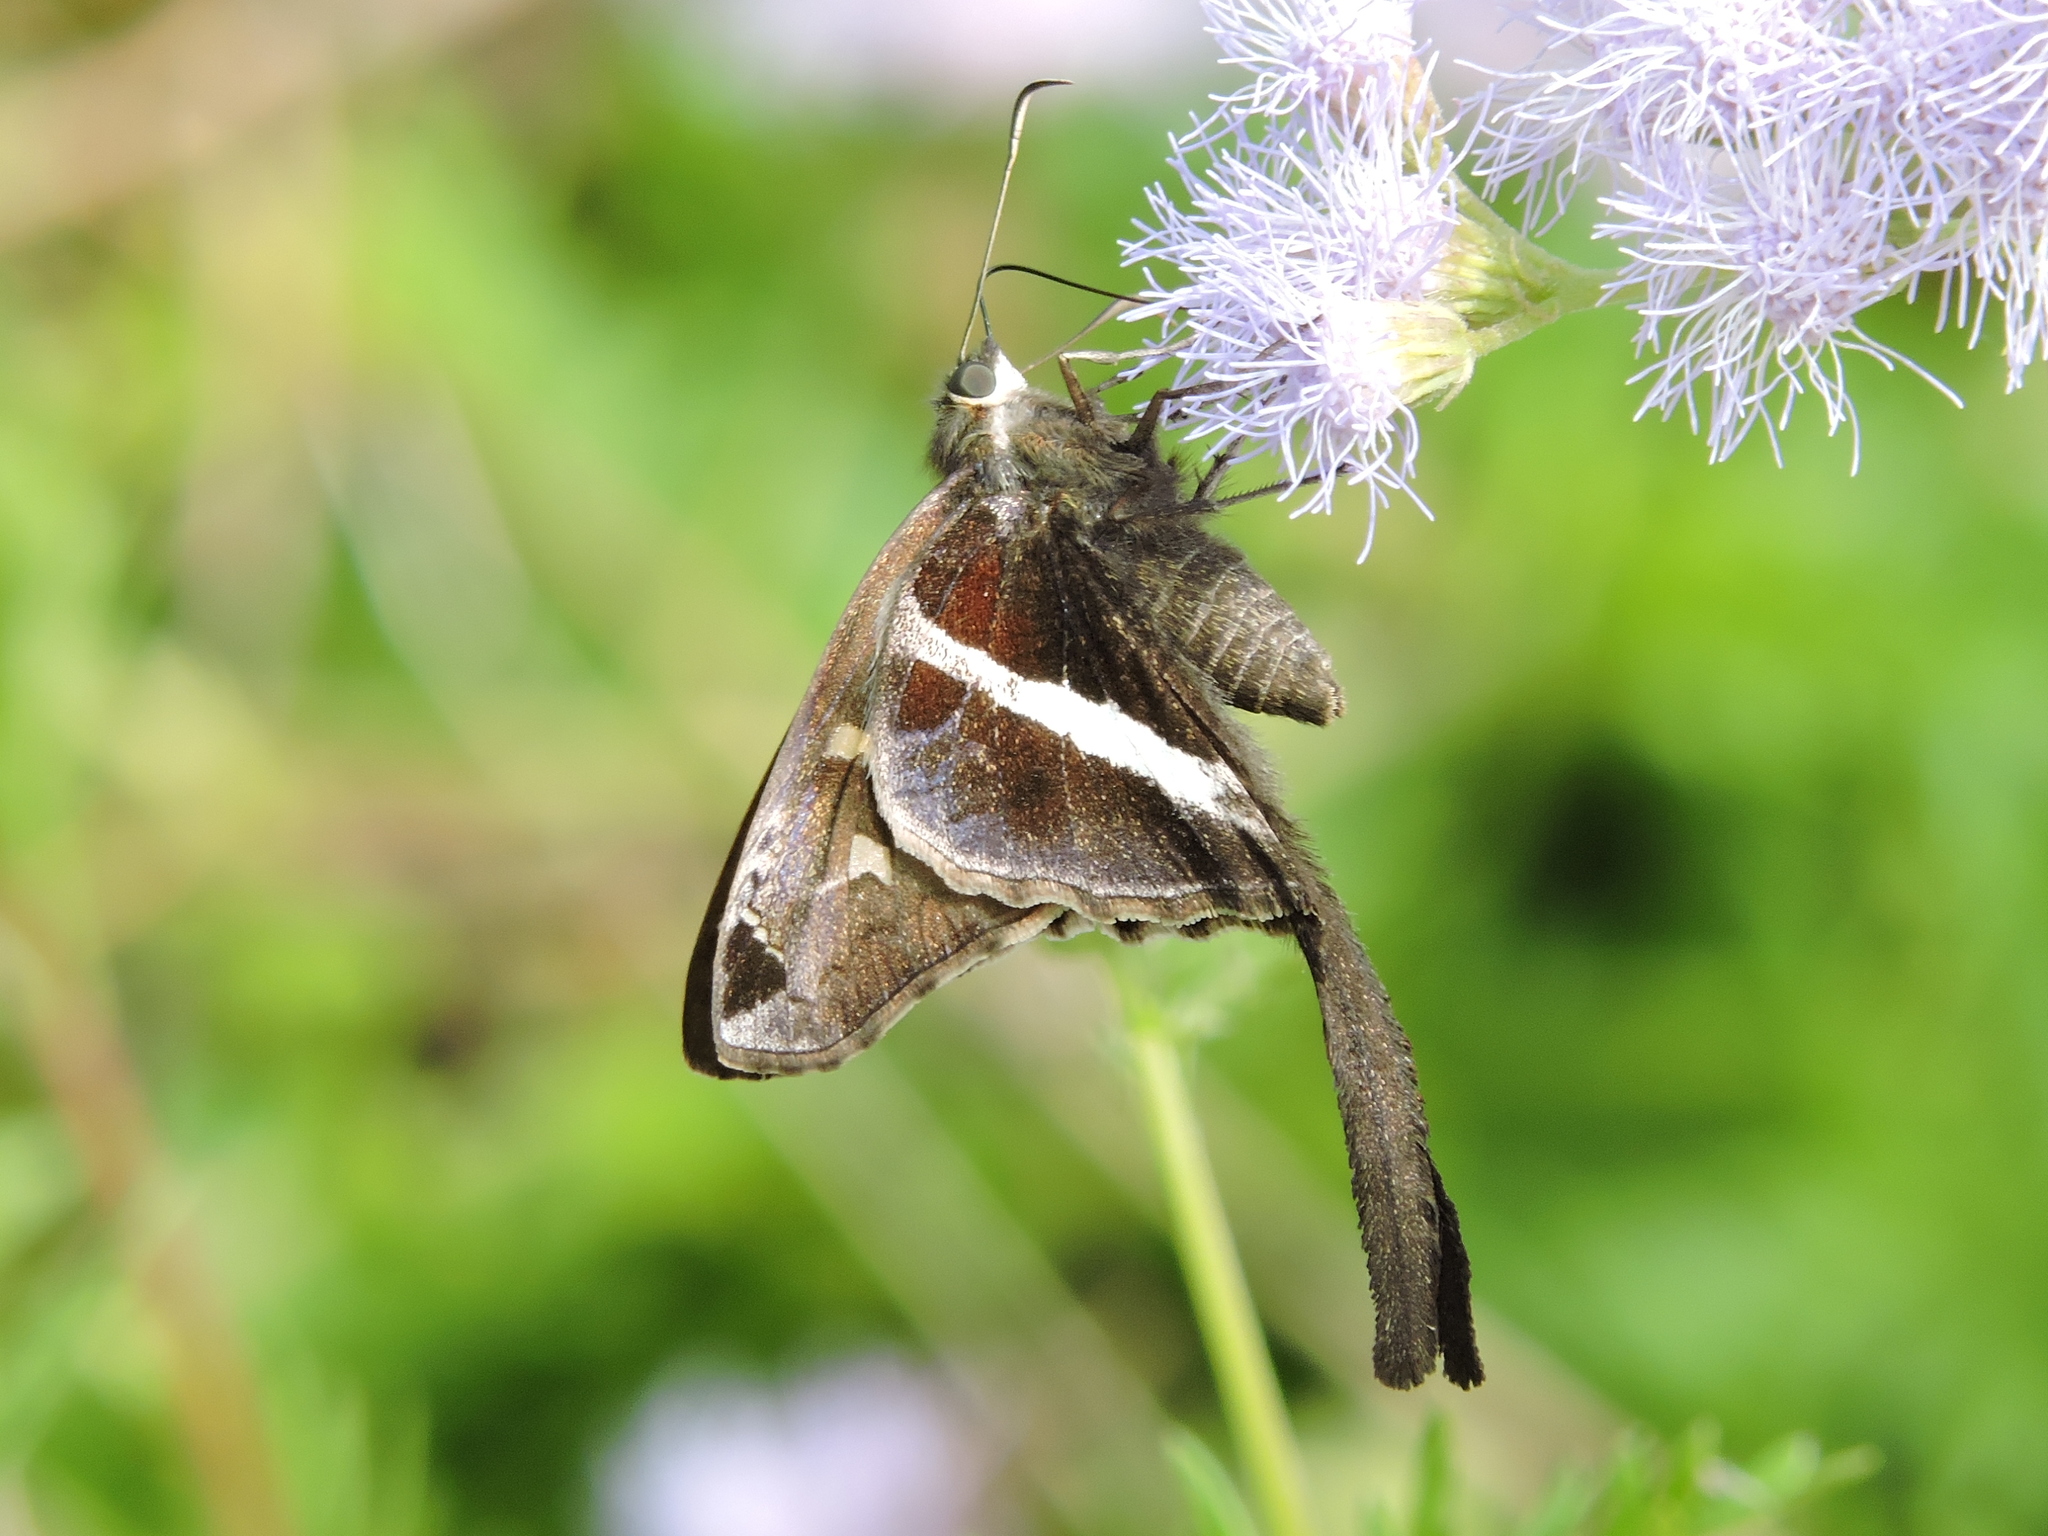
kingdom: Animalia
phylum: Arthropoda
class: Insecta
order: Lepidoptera
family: Hesperiidae
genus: Chioides
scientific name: Chioides catillus
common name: Silverbanded skipper
